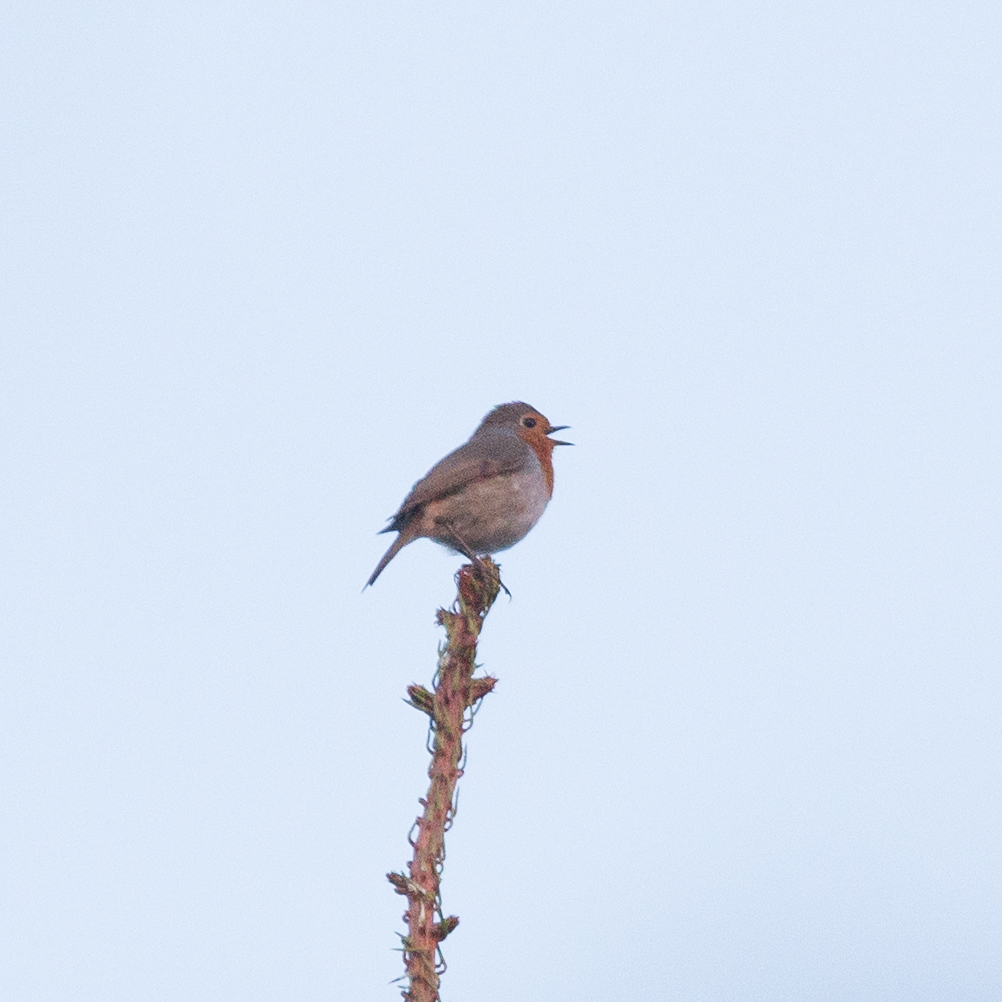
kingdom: Animalia
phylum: Chordata
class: Aves
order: Passeriformes
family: Muscicapidae
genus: Erithacus
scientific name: Erithacus rubecula
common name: European robin
